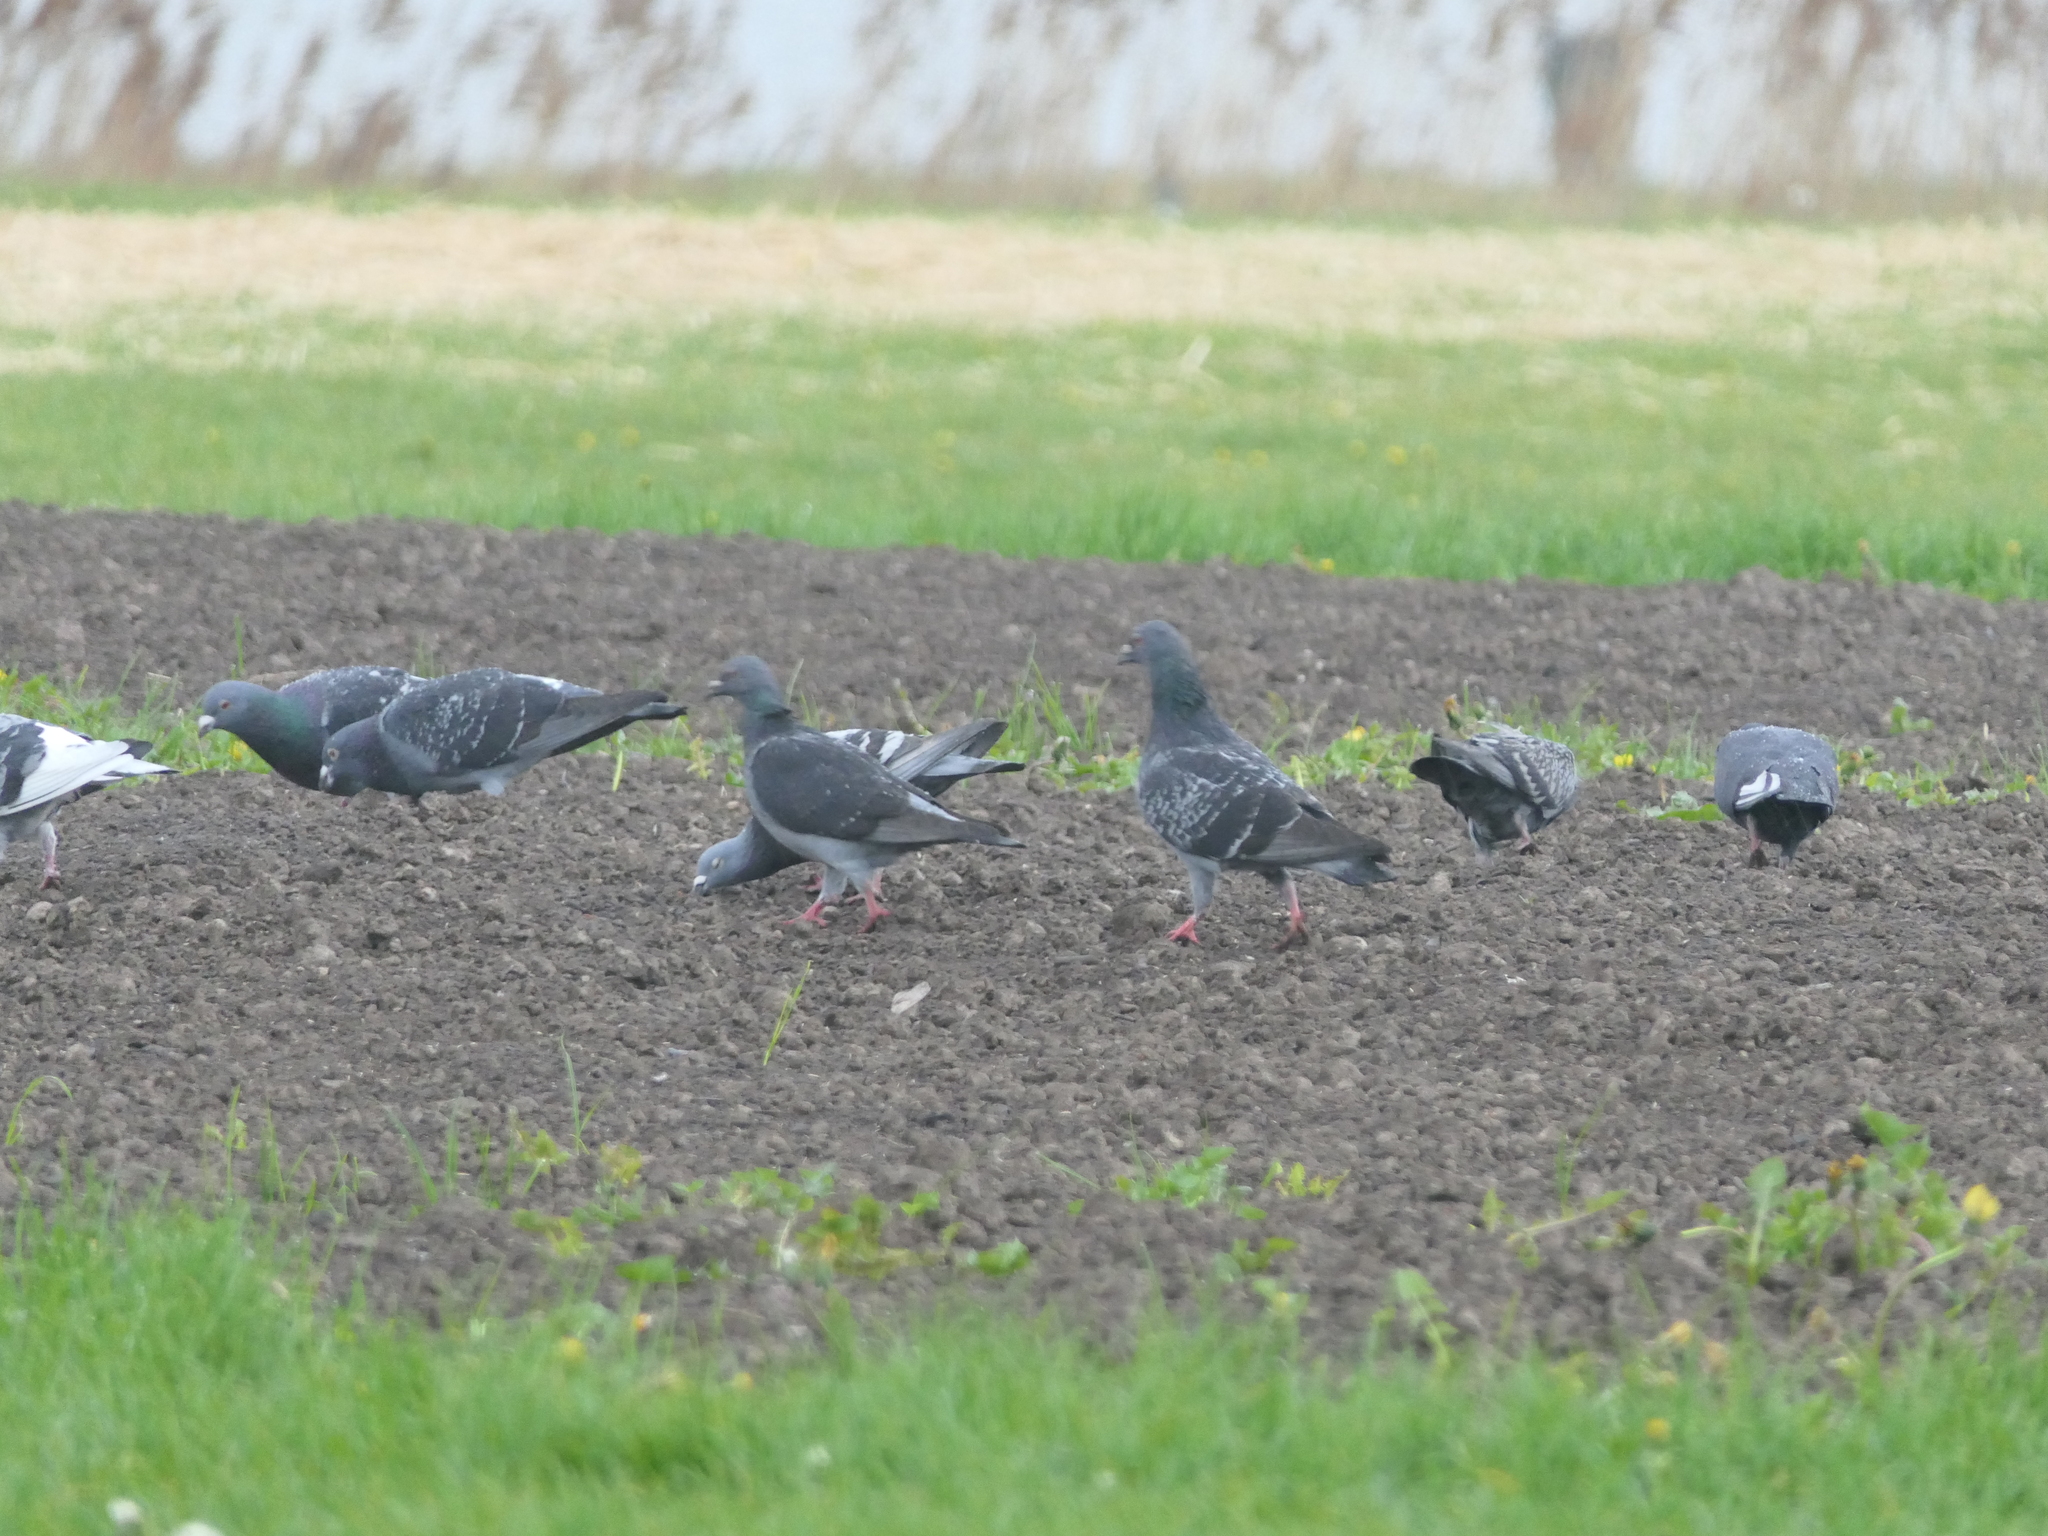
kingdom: Animalia
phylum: Chordata
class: Aves
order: Columbiformes
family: Columbidae
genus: Columba
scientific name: Columba livia
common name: Rock pigeon
